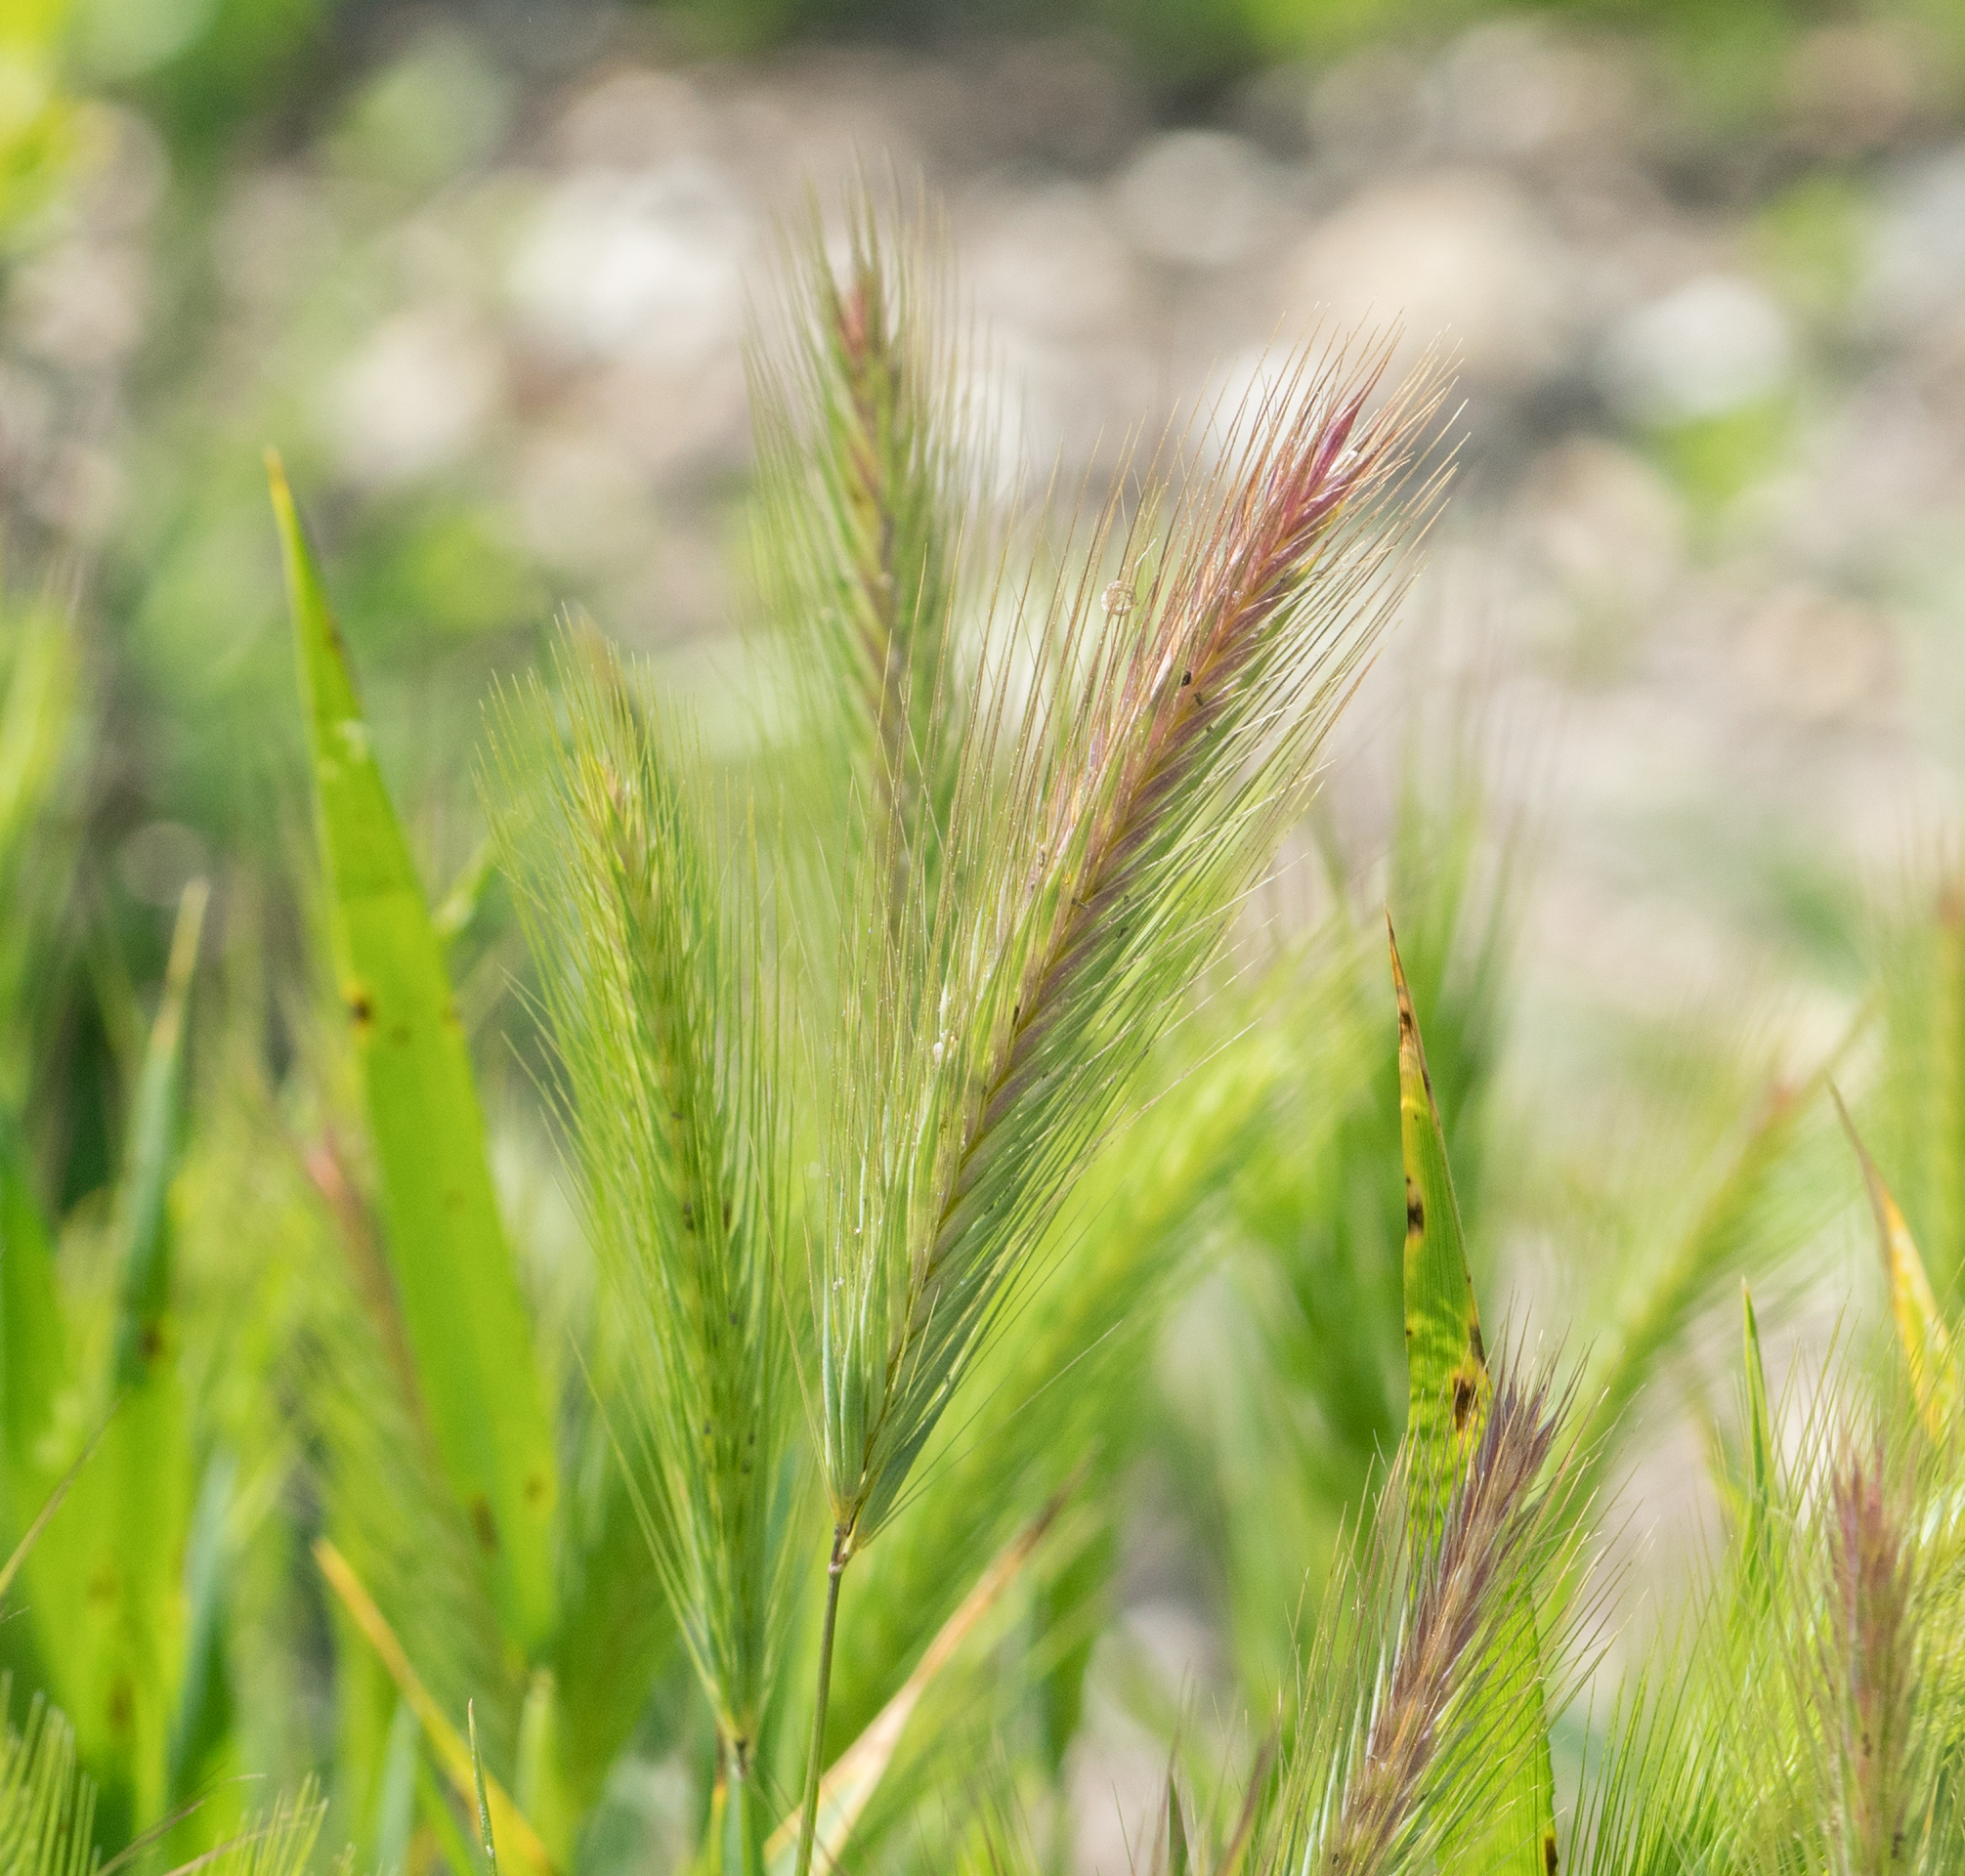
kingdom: Plantae
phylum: Tracheophyta
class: Liliopsida
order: Poales
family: Poaceae
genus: Hordeum
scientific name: Hordeum murinum
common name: Wall barley
